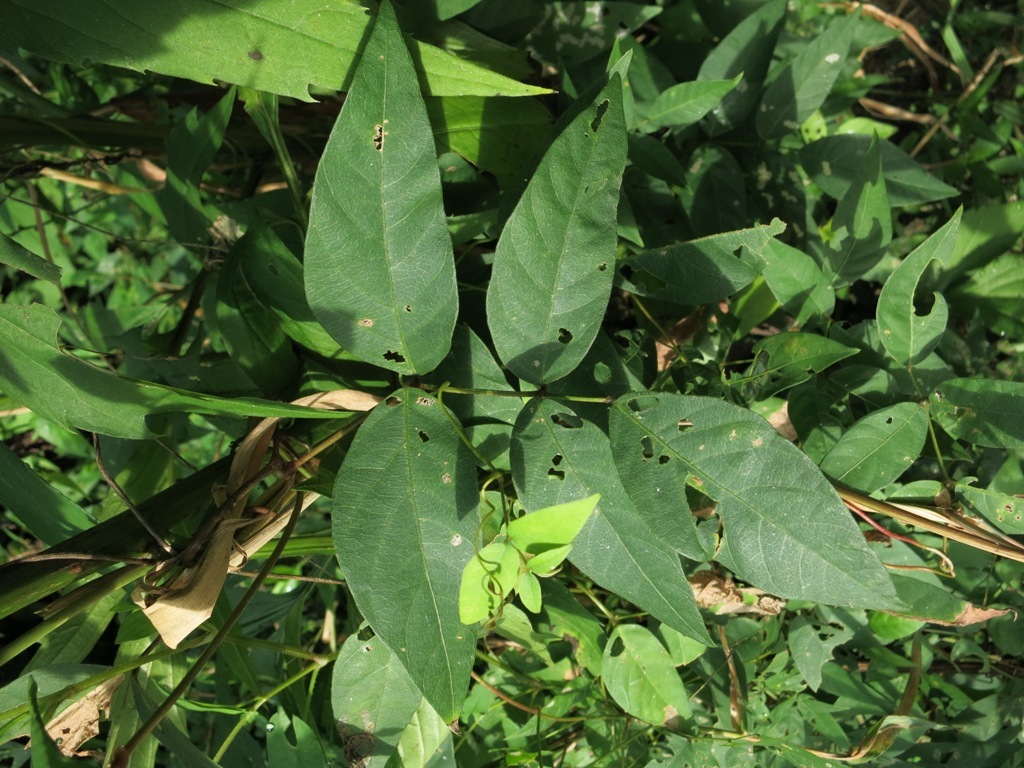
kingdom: Plantae
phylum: Tracheophyta
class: Magnoliopsida
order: Fabales
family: Fabaceae
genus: Apios
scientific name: Apios americana
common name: American potato-bean
